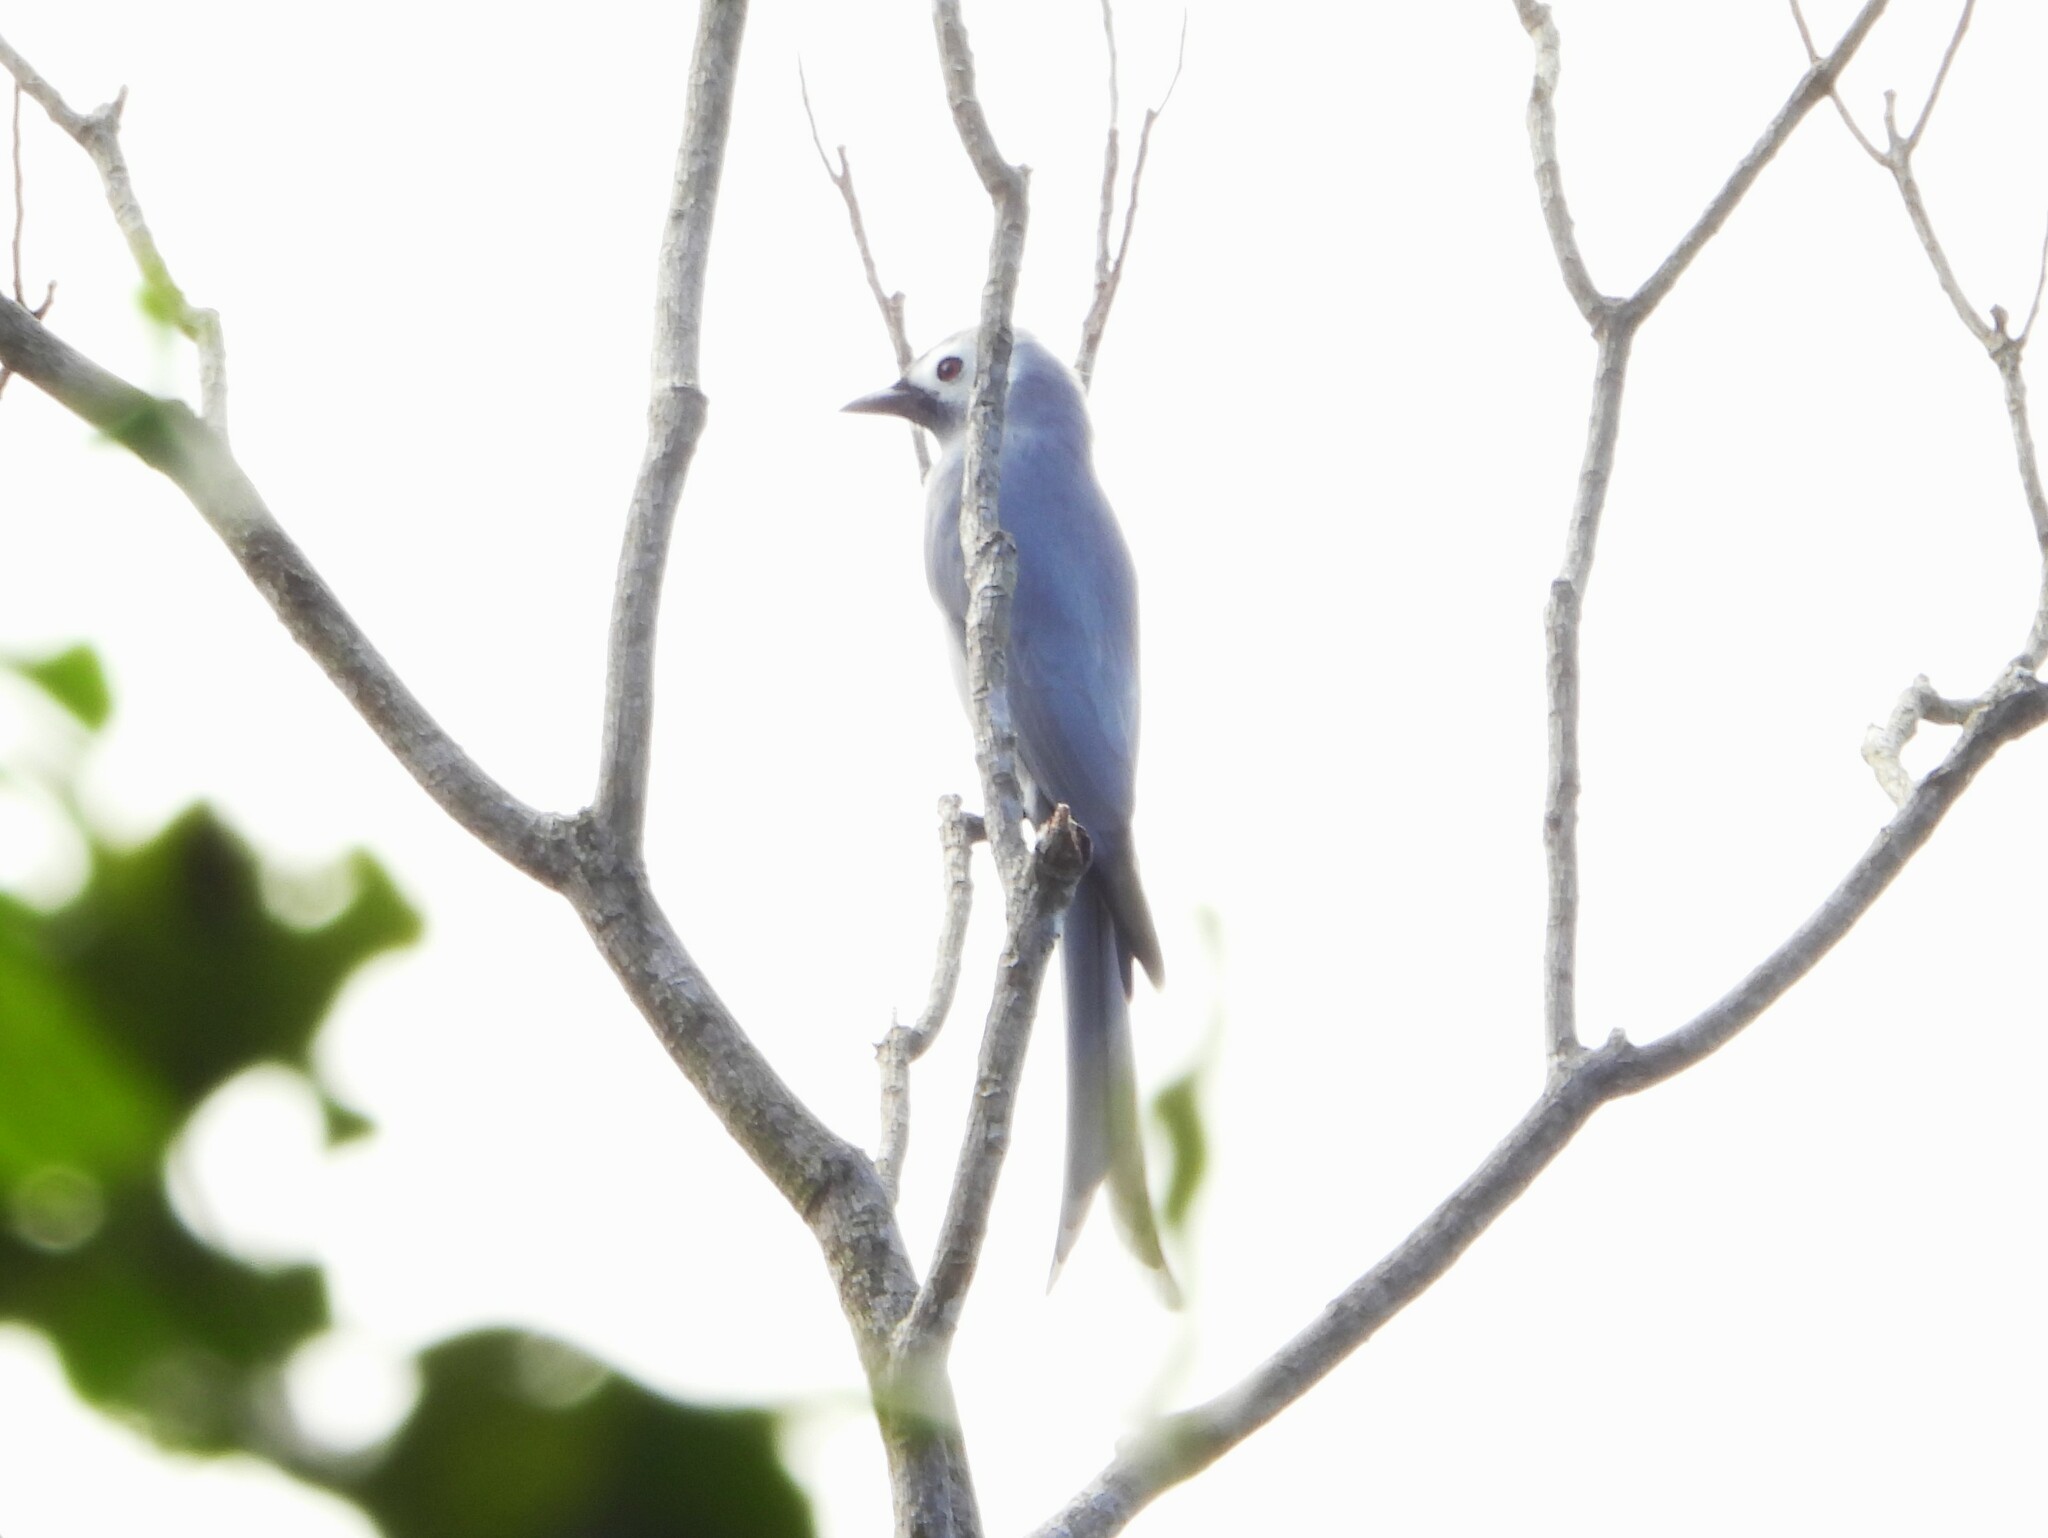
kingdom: Animalia
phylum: Chordata
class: Aves
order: Passeriformes
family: Dicruridae
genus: Dicrurus
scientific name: Dicrurus leucophaeus
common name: Ashy drongo
